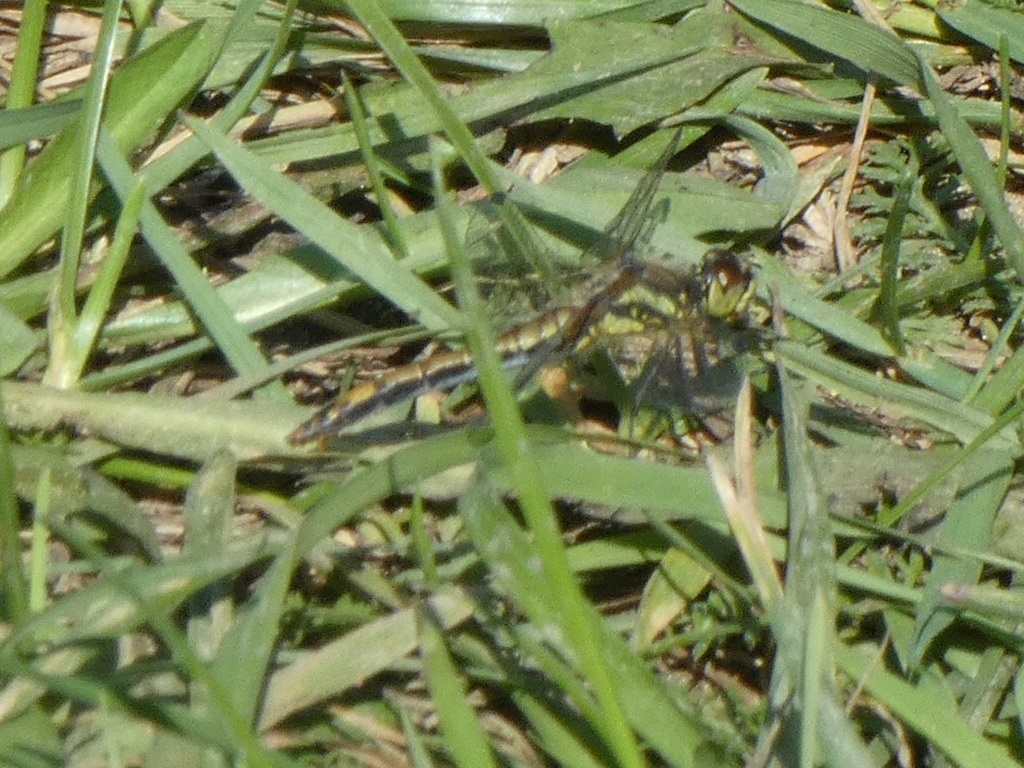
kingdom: Animalia
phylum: Arthropoda
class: Insecta
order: Odonata
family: Libellulidae
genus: Sympetrum
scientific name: Sympetrum danae
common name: Black darter
